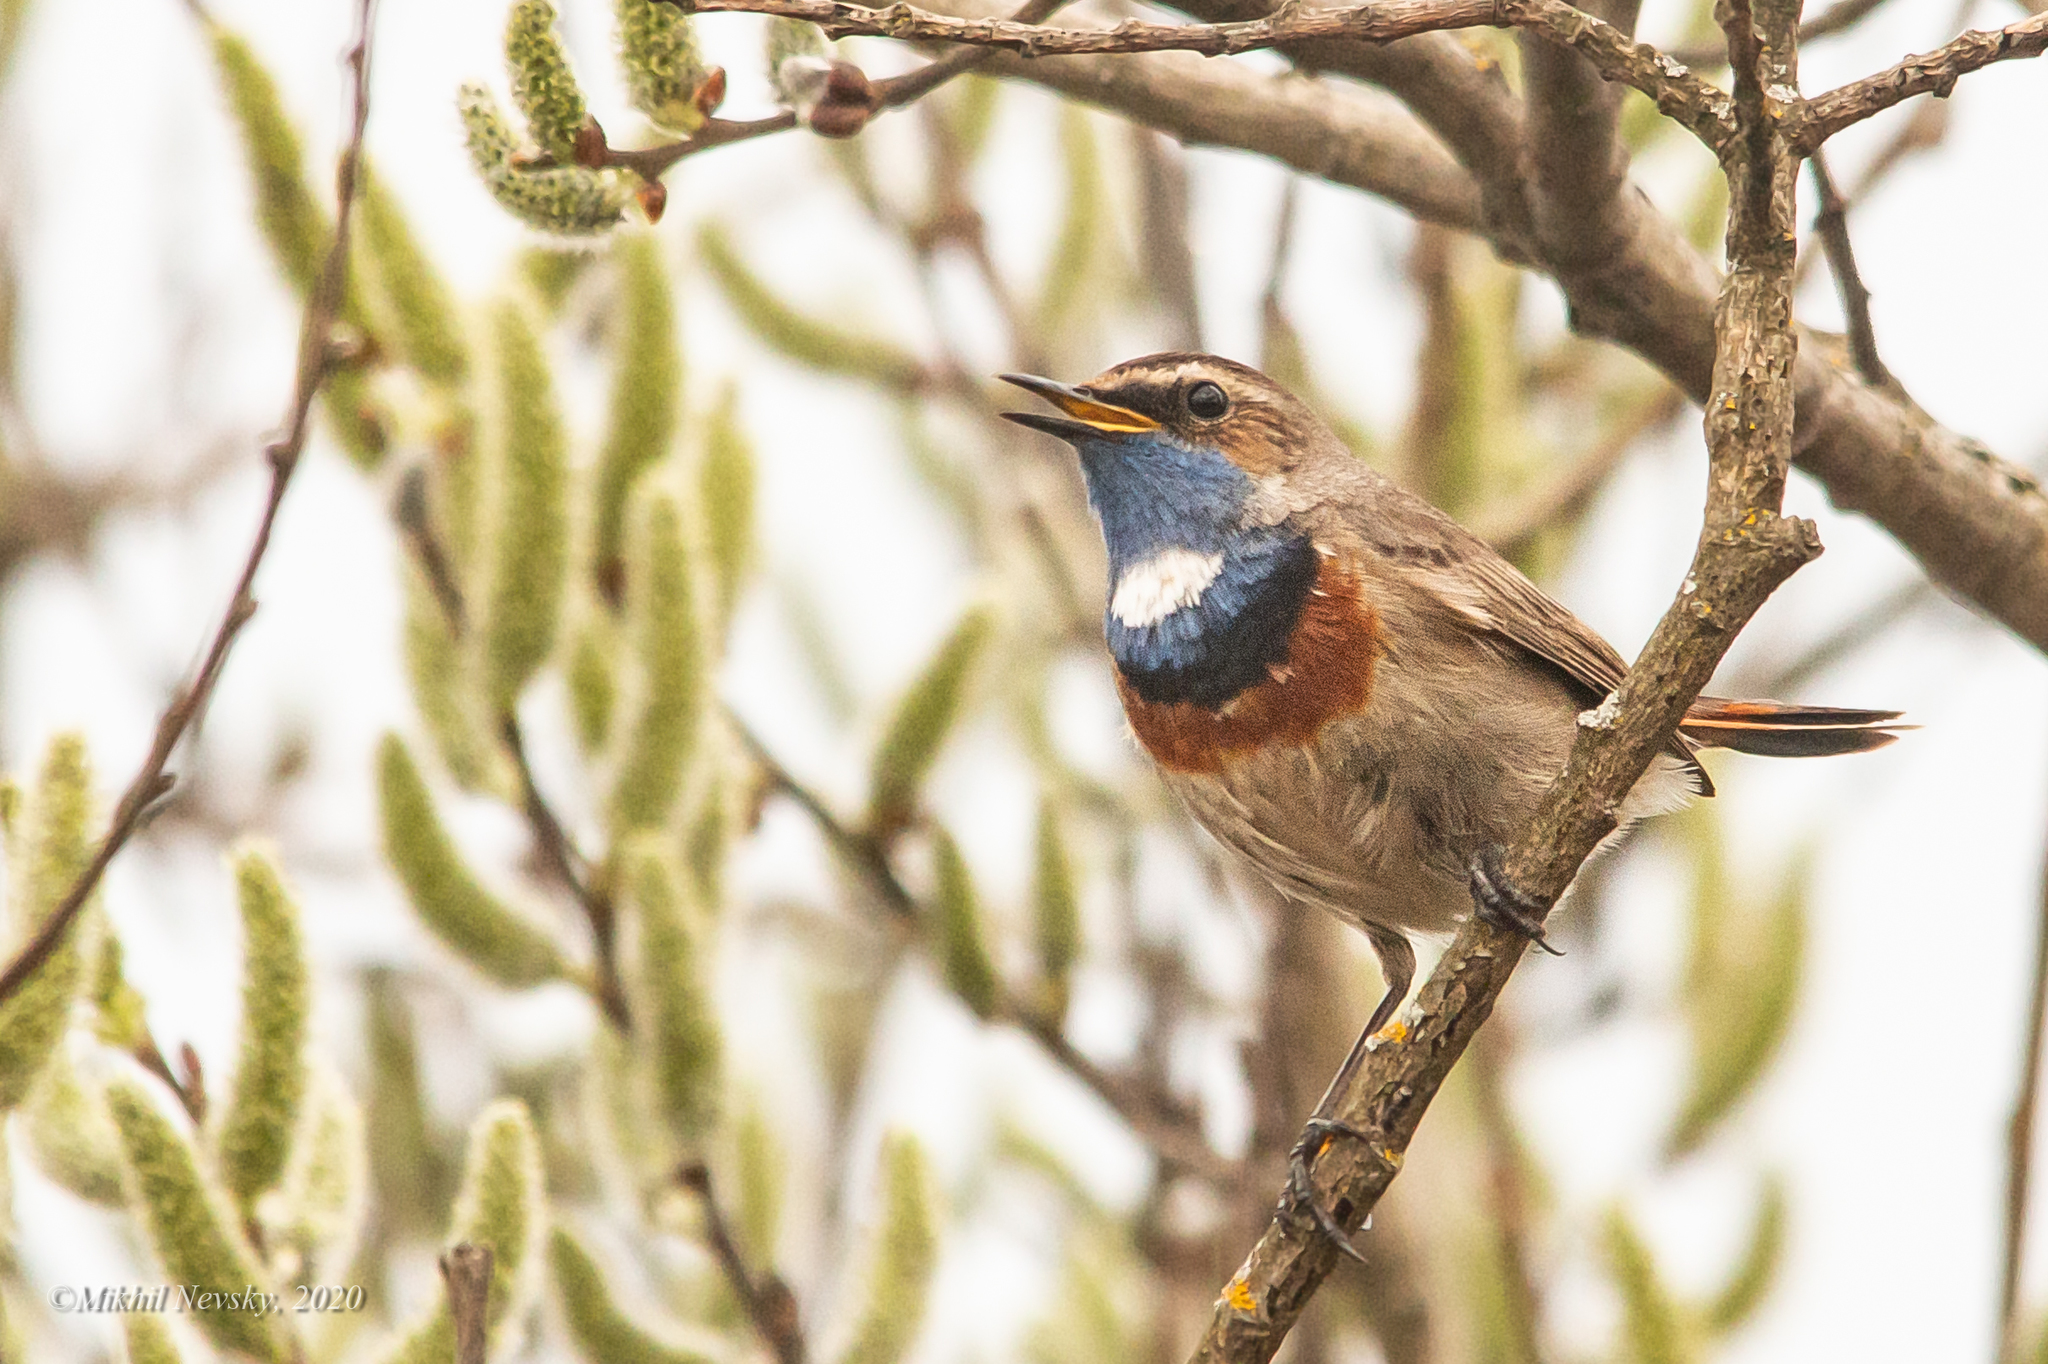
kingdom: Animalia
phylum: Chordata
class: Aves
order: Passeriformes
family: Muscicapidae
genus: Luscinia
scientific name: Luscinia svecica
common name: Bluethroat
